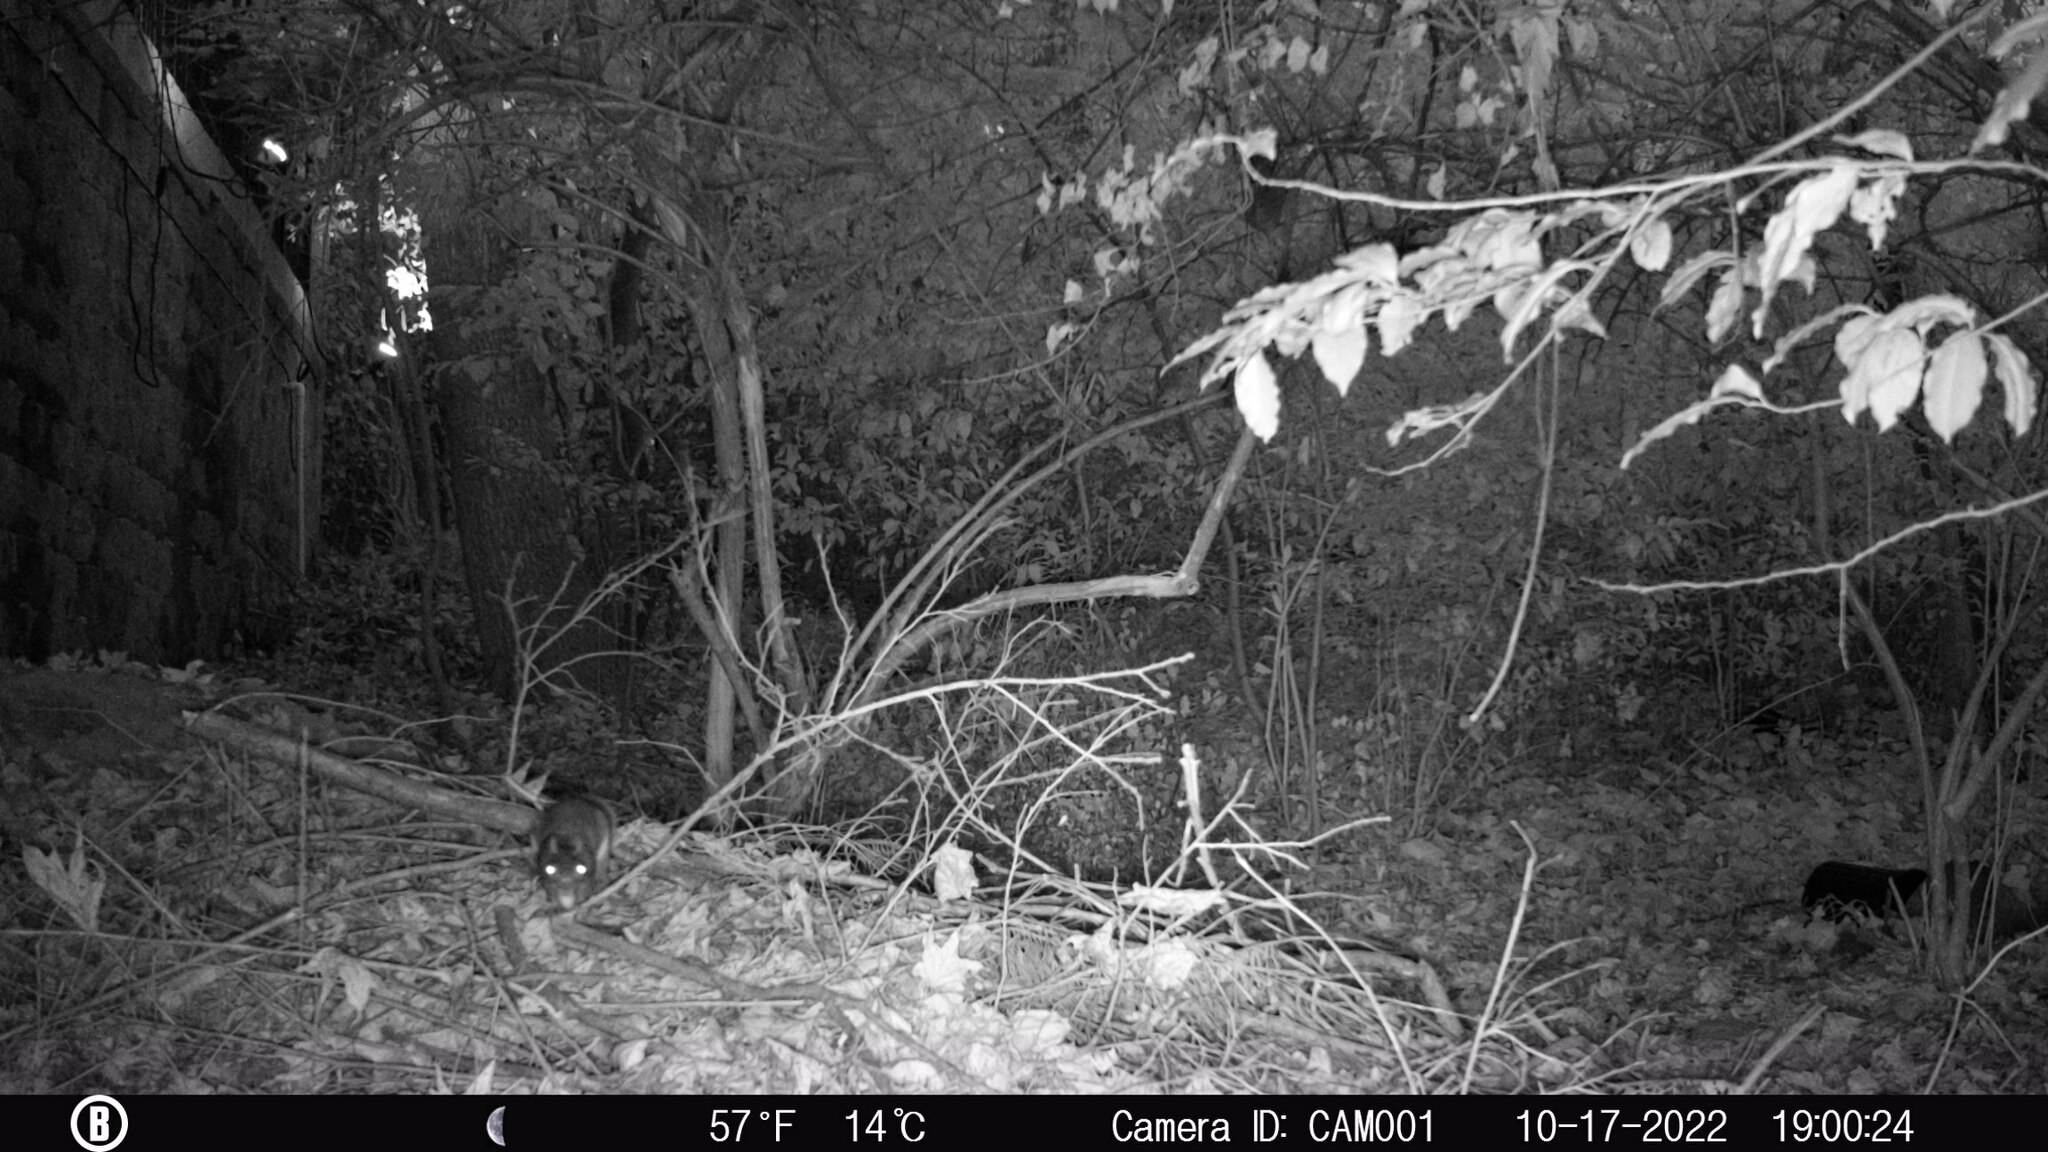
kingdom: Animalia
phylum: Chordata
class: Mammalia
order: Rodentia
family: Sciuridae
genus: Sciurus
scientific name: Sciurus carolinensis
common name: Eastern gray squirrel
